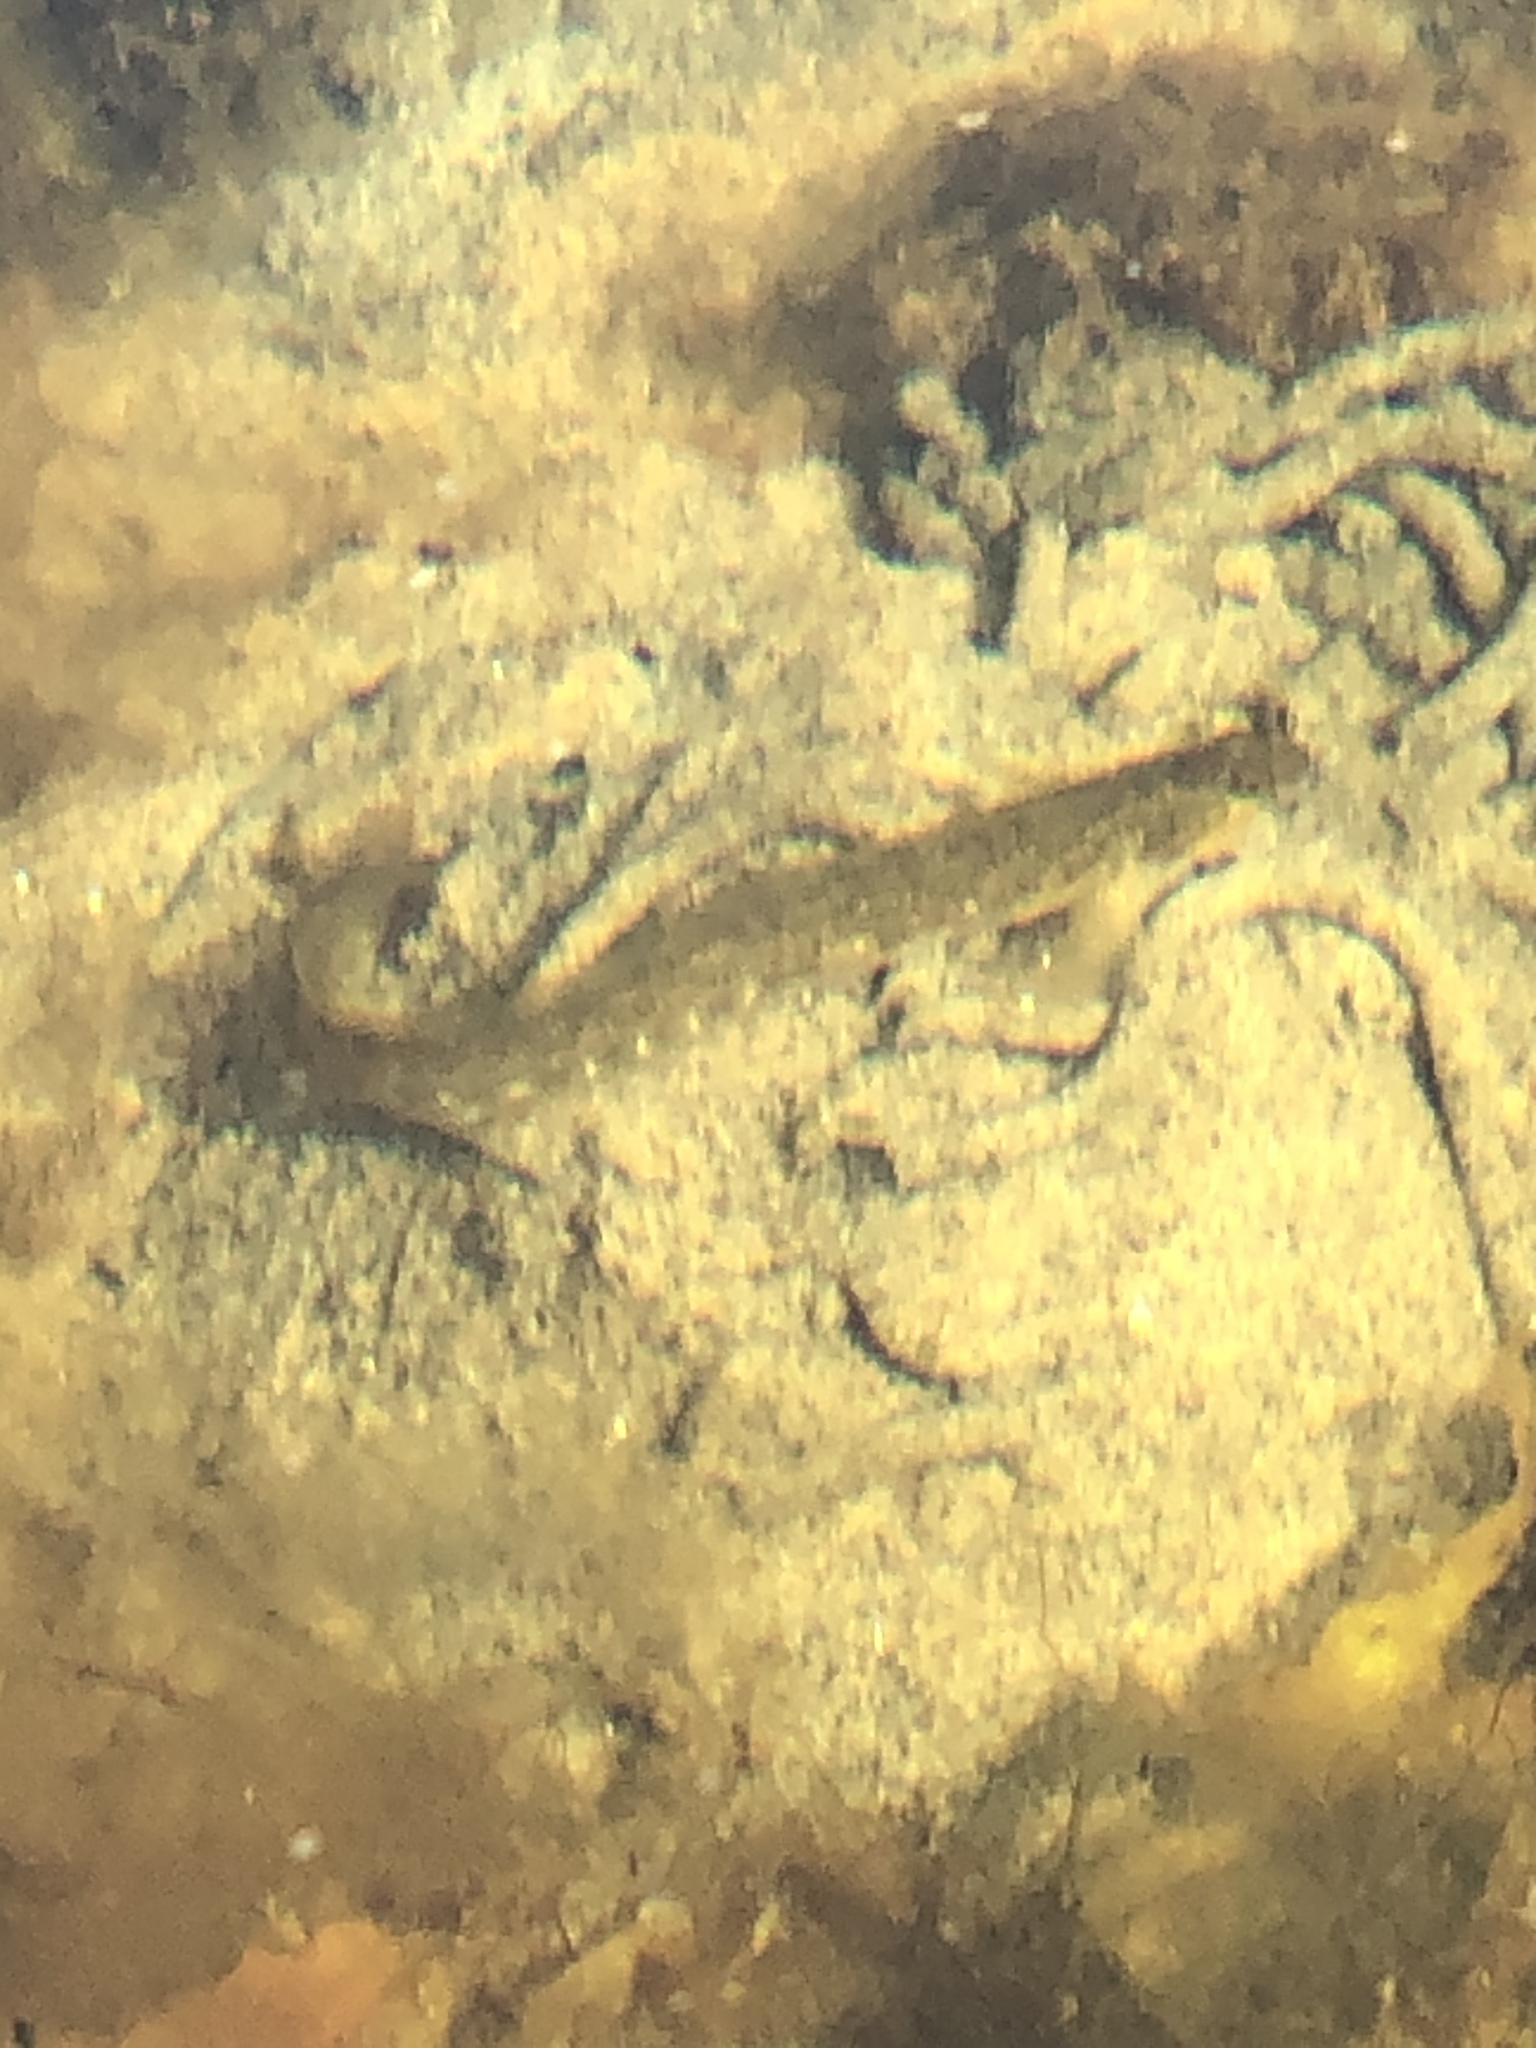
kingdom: Animalia
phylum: Chordata
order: Perciformes
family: Zoarcidae
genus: Zoarces
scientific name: Zoarces viviparus
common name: Viviparous blenny
